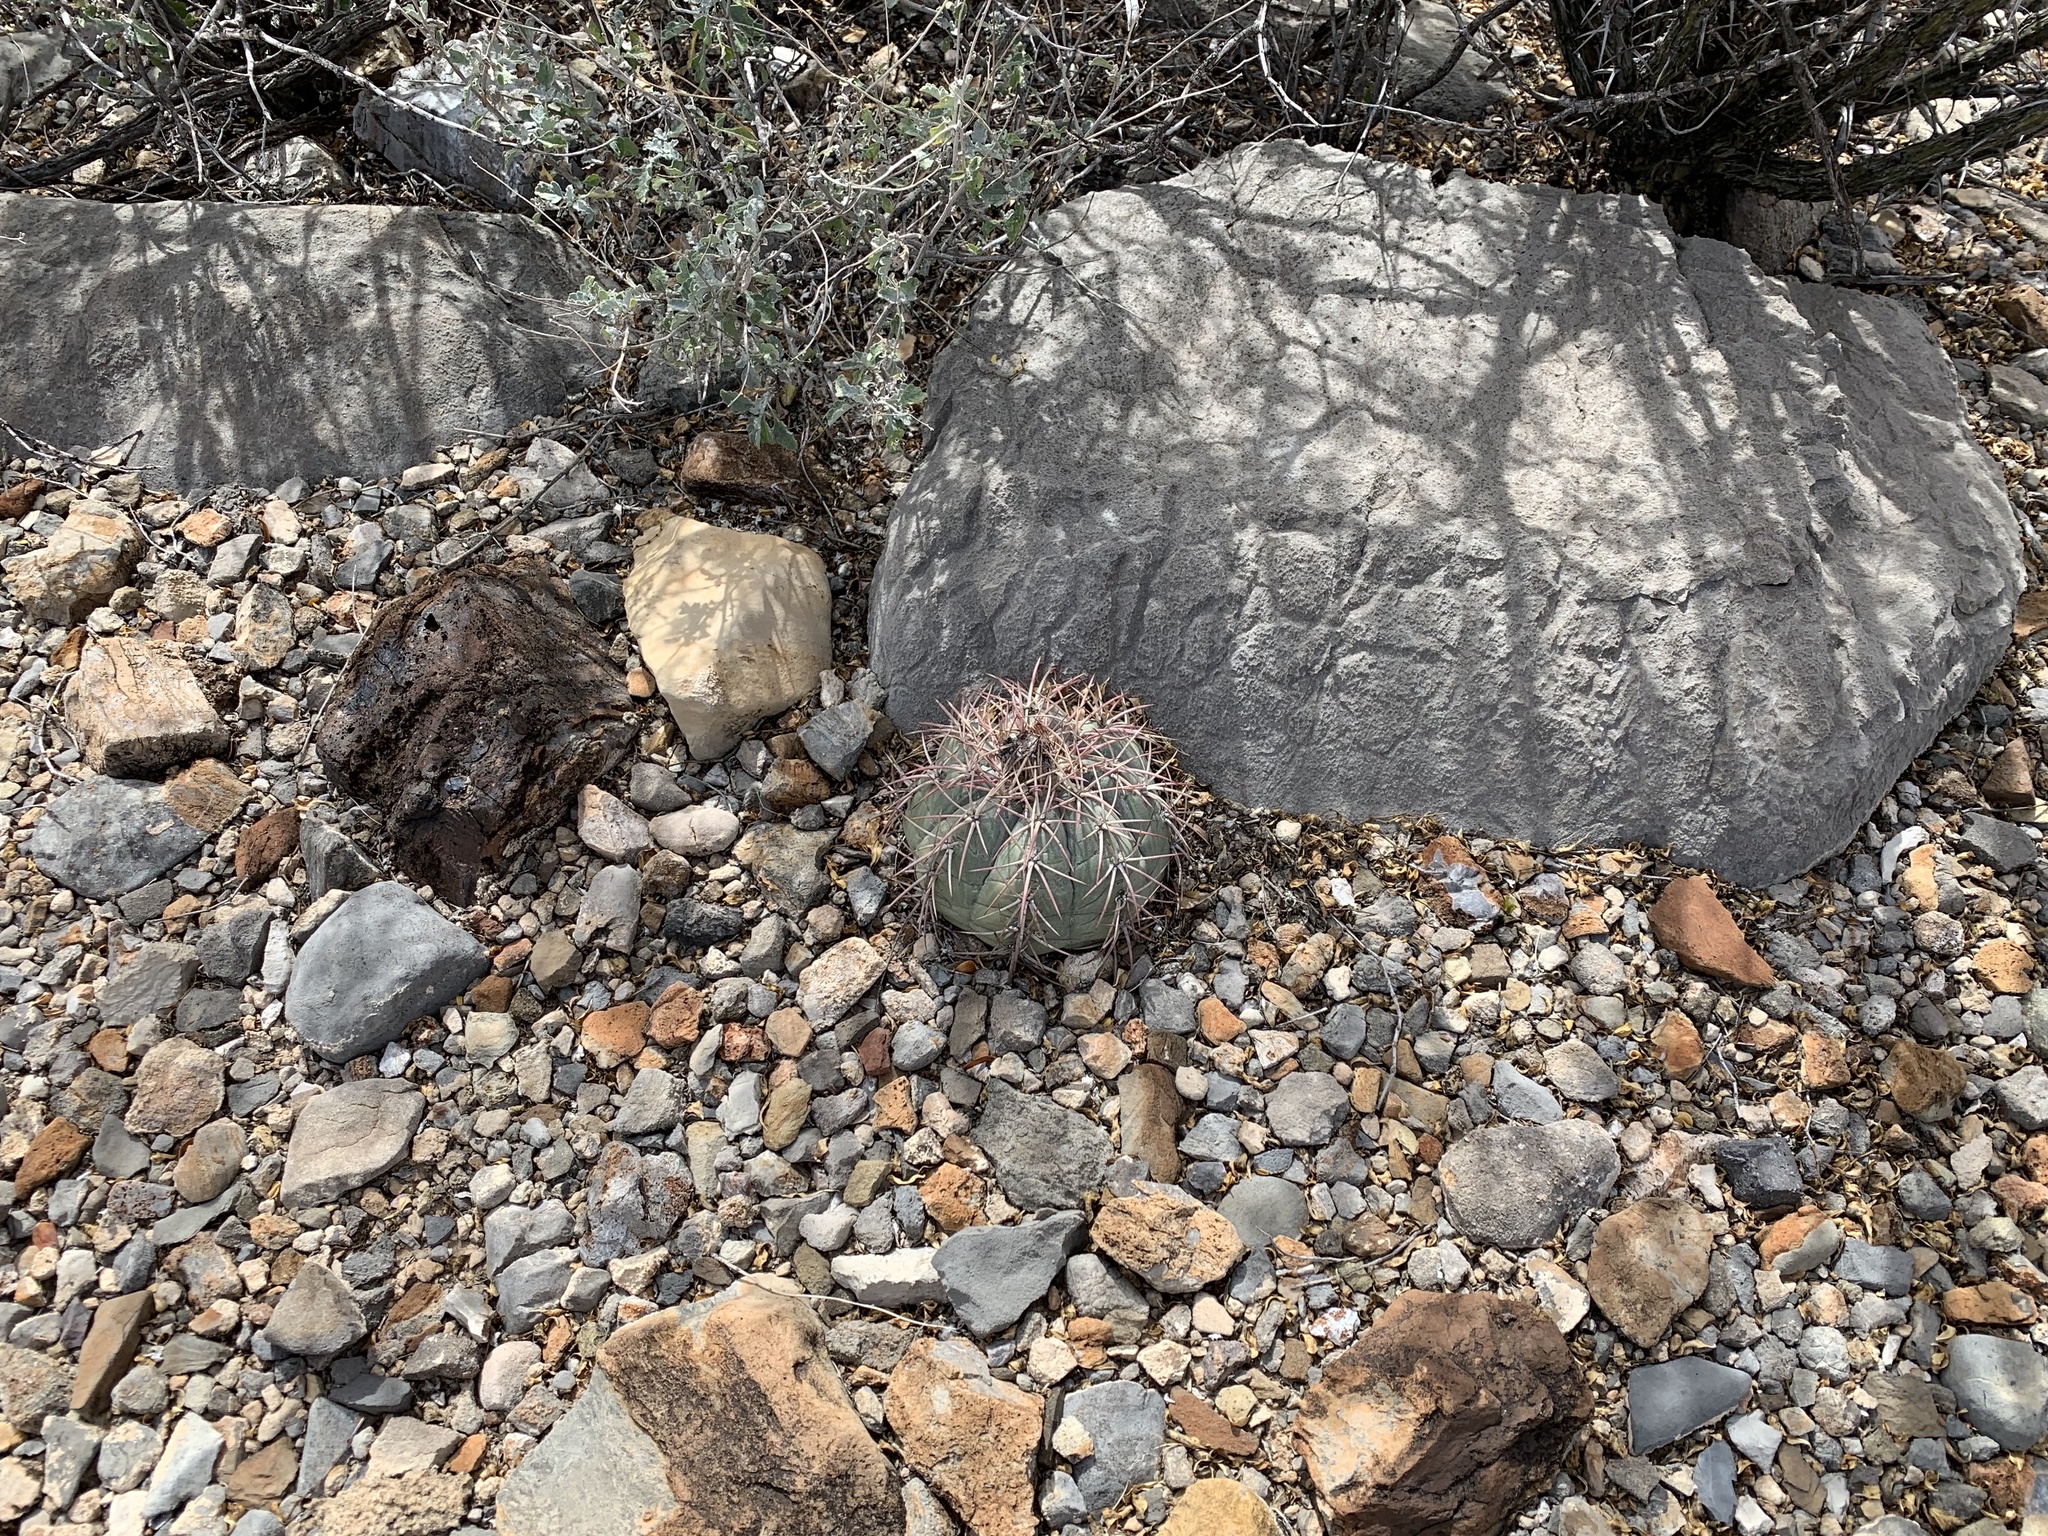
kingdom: Plantae
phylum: Tracheophyta
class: Magnoliopsida
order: Caryophyllales
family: Cactaceae
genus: Echinocactus
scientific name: Echinocactus horizonthalonius
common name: Devilshead
